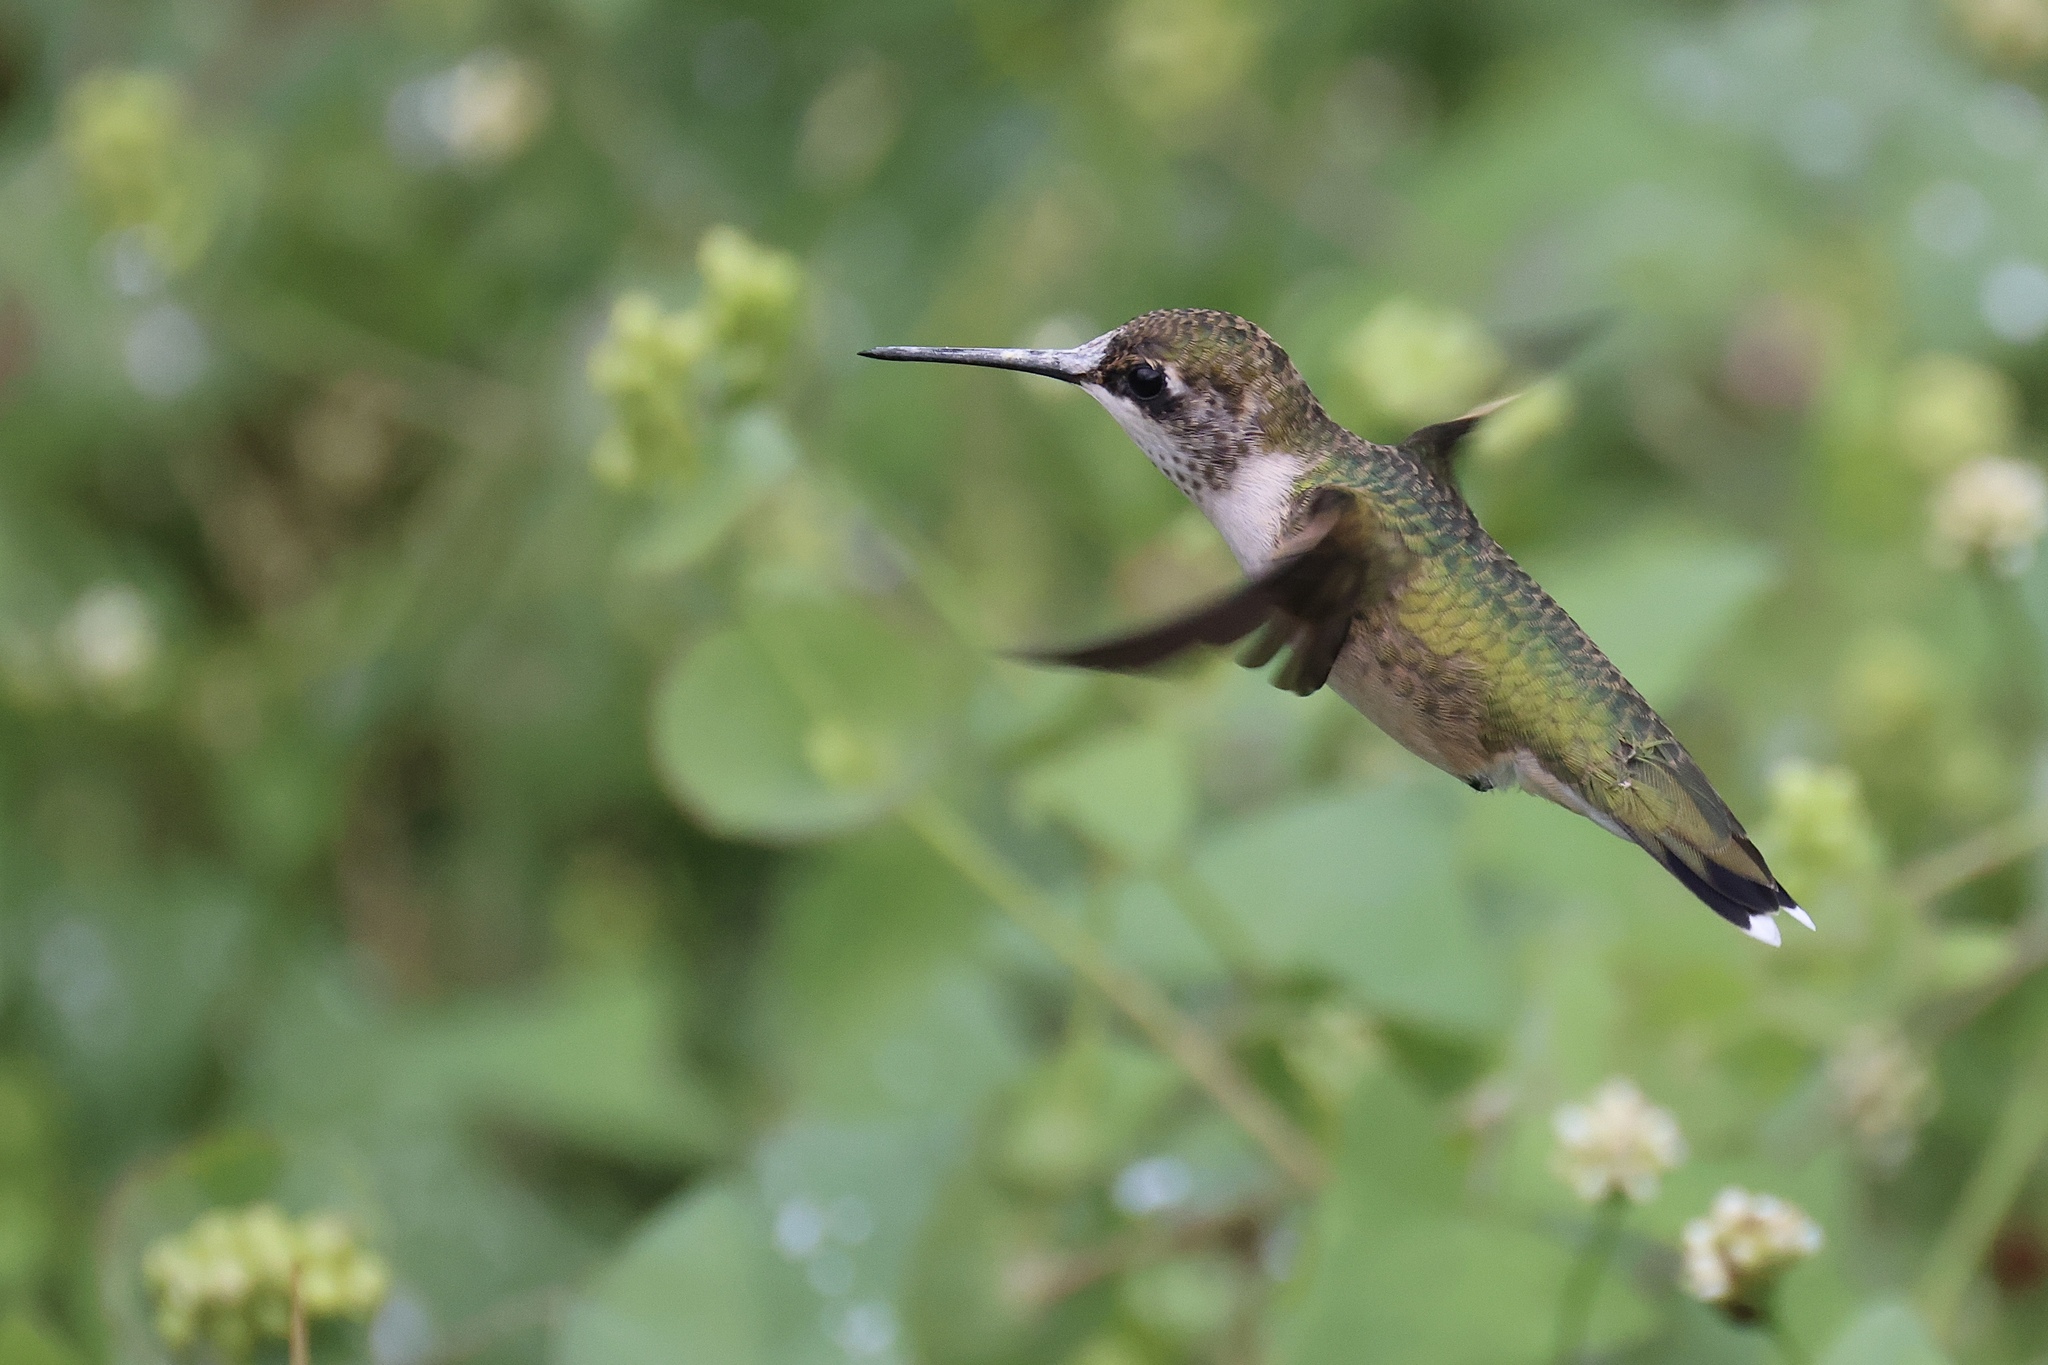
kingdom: Animalia
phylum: Chordata
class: Aves
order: Apodiformes
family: Trochilidae
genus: Archilochus
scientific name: Archilochus colubris
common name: Ruby-throated hummingbird
